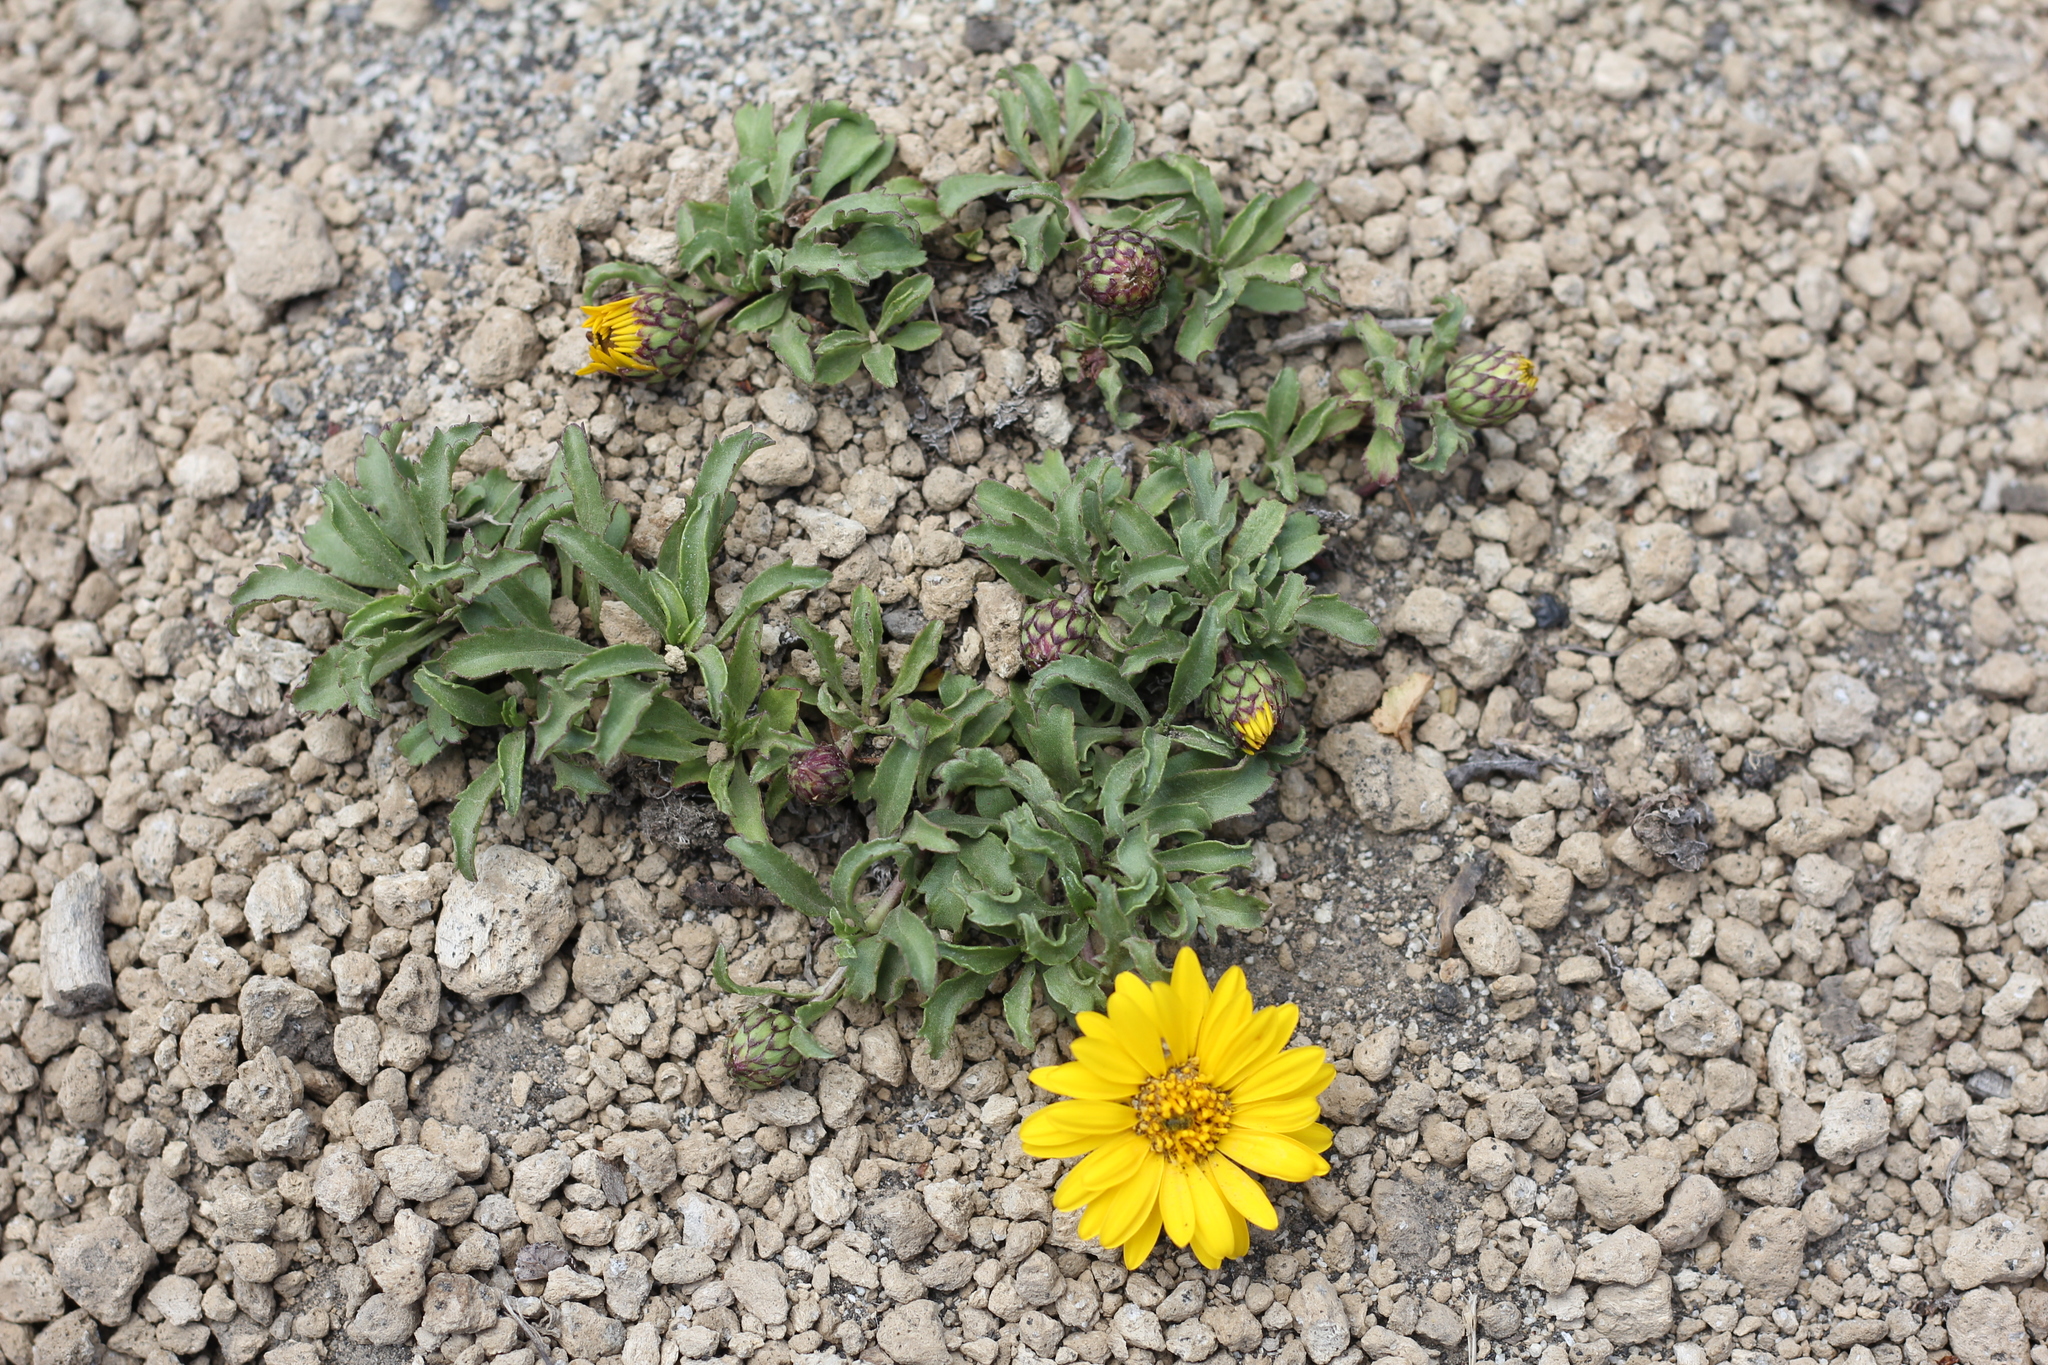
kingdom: Plantae
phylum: Tracheophyta
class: Magnoliopsida
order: Asterales
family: Asteraceae
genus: Notopappus
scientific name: Notopappus prunelloides
